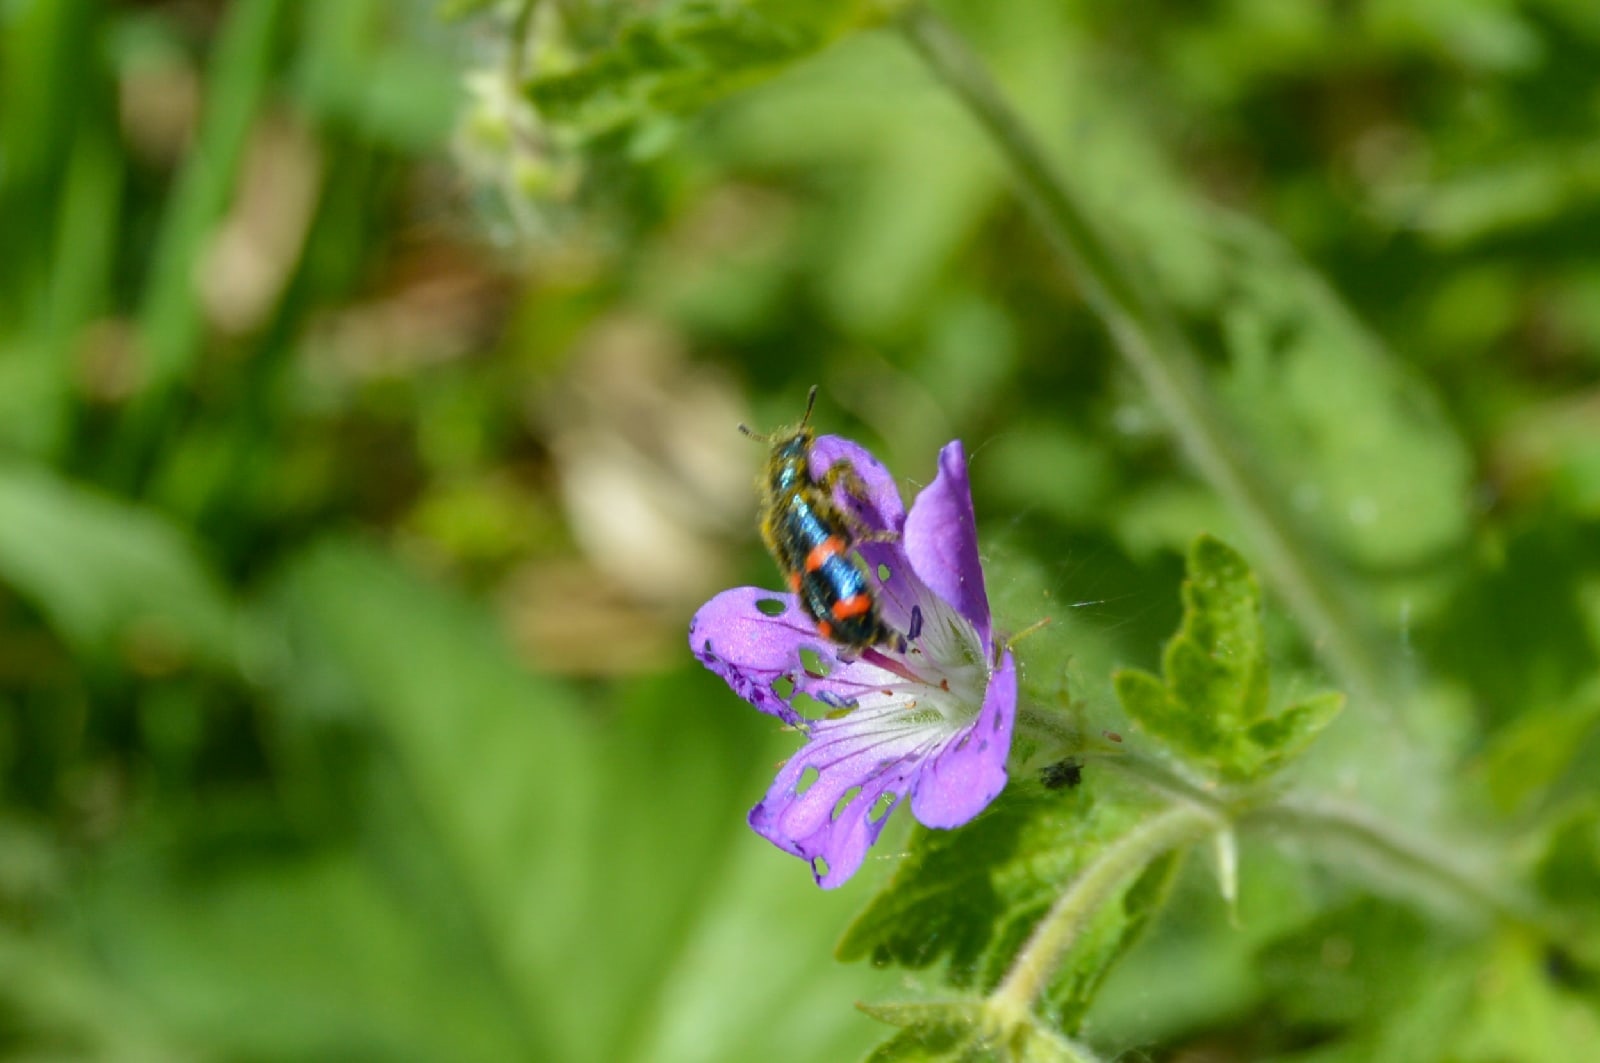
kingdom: Animalia
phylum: Arthropoda
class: Insecta
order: Coleoptera
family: Cleridae
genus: Trichodes
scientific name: Trichodes
